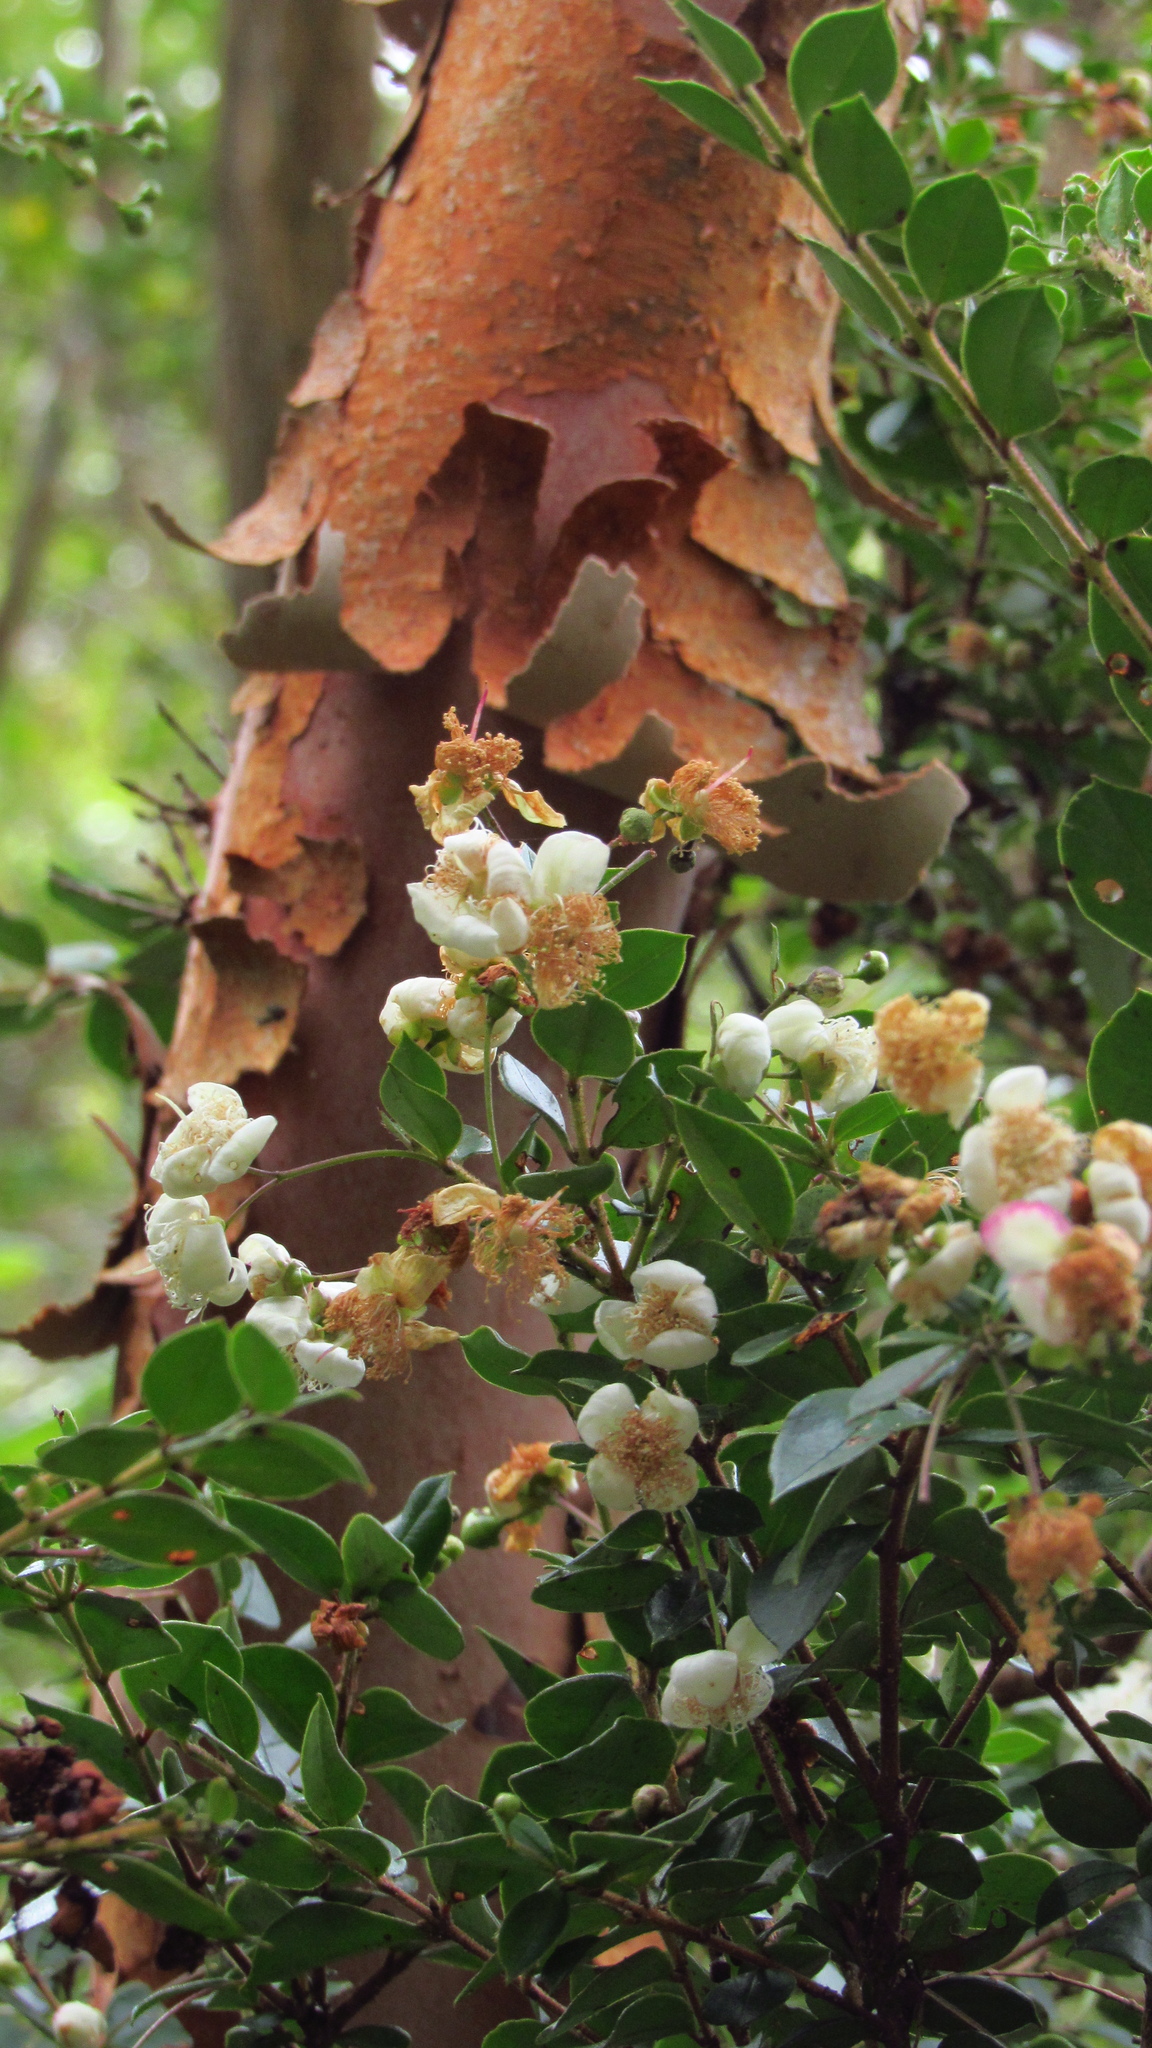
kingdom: Plantae
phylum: Tracheophyta
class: Magnoliopsida
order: Myrtales
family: Myrtaceae
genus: Luma
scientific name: Luma apiculata
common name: Chilean myrtle
